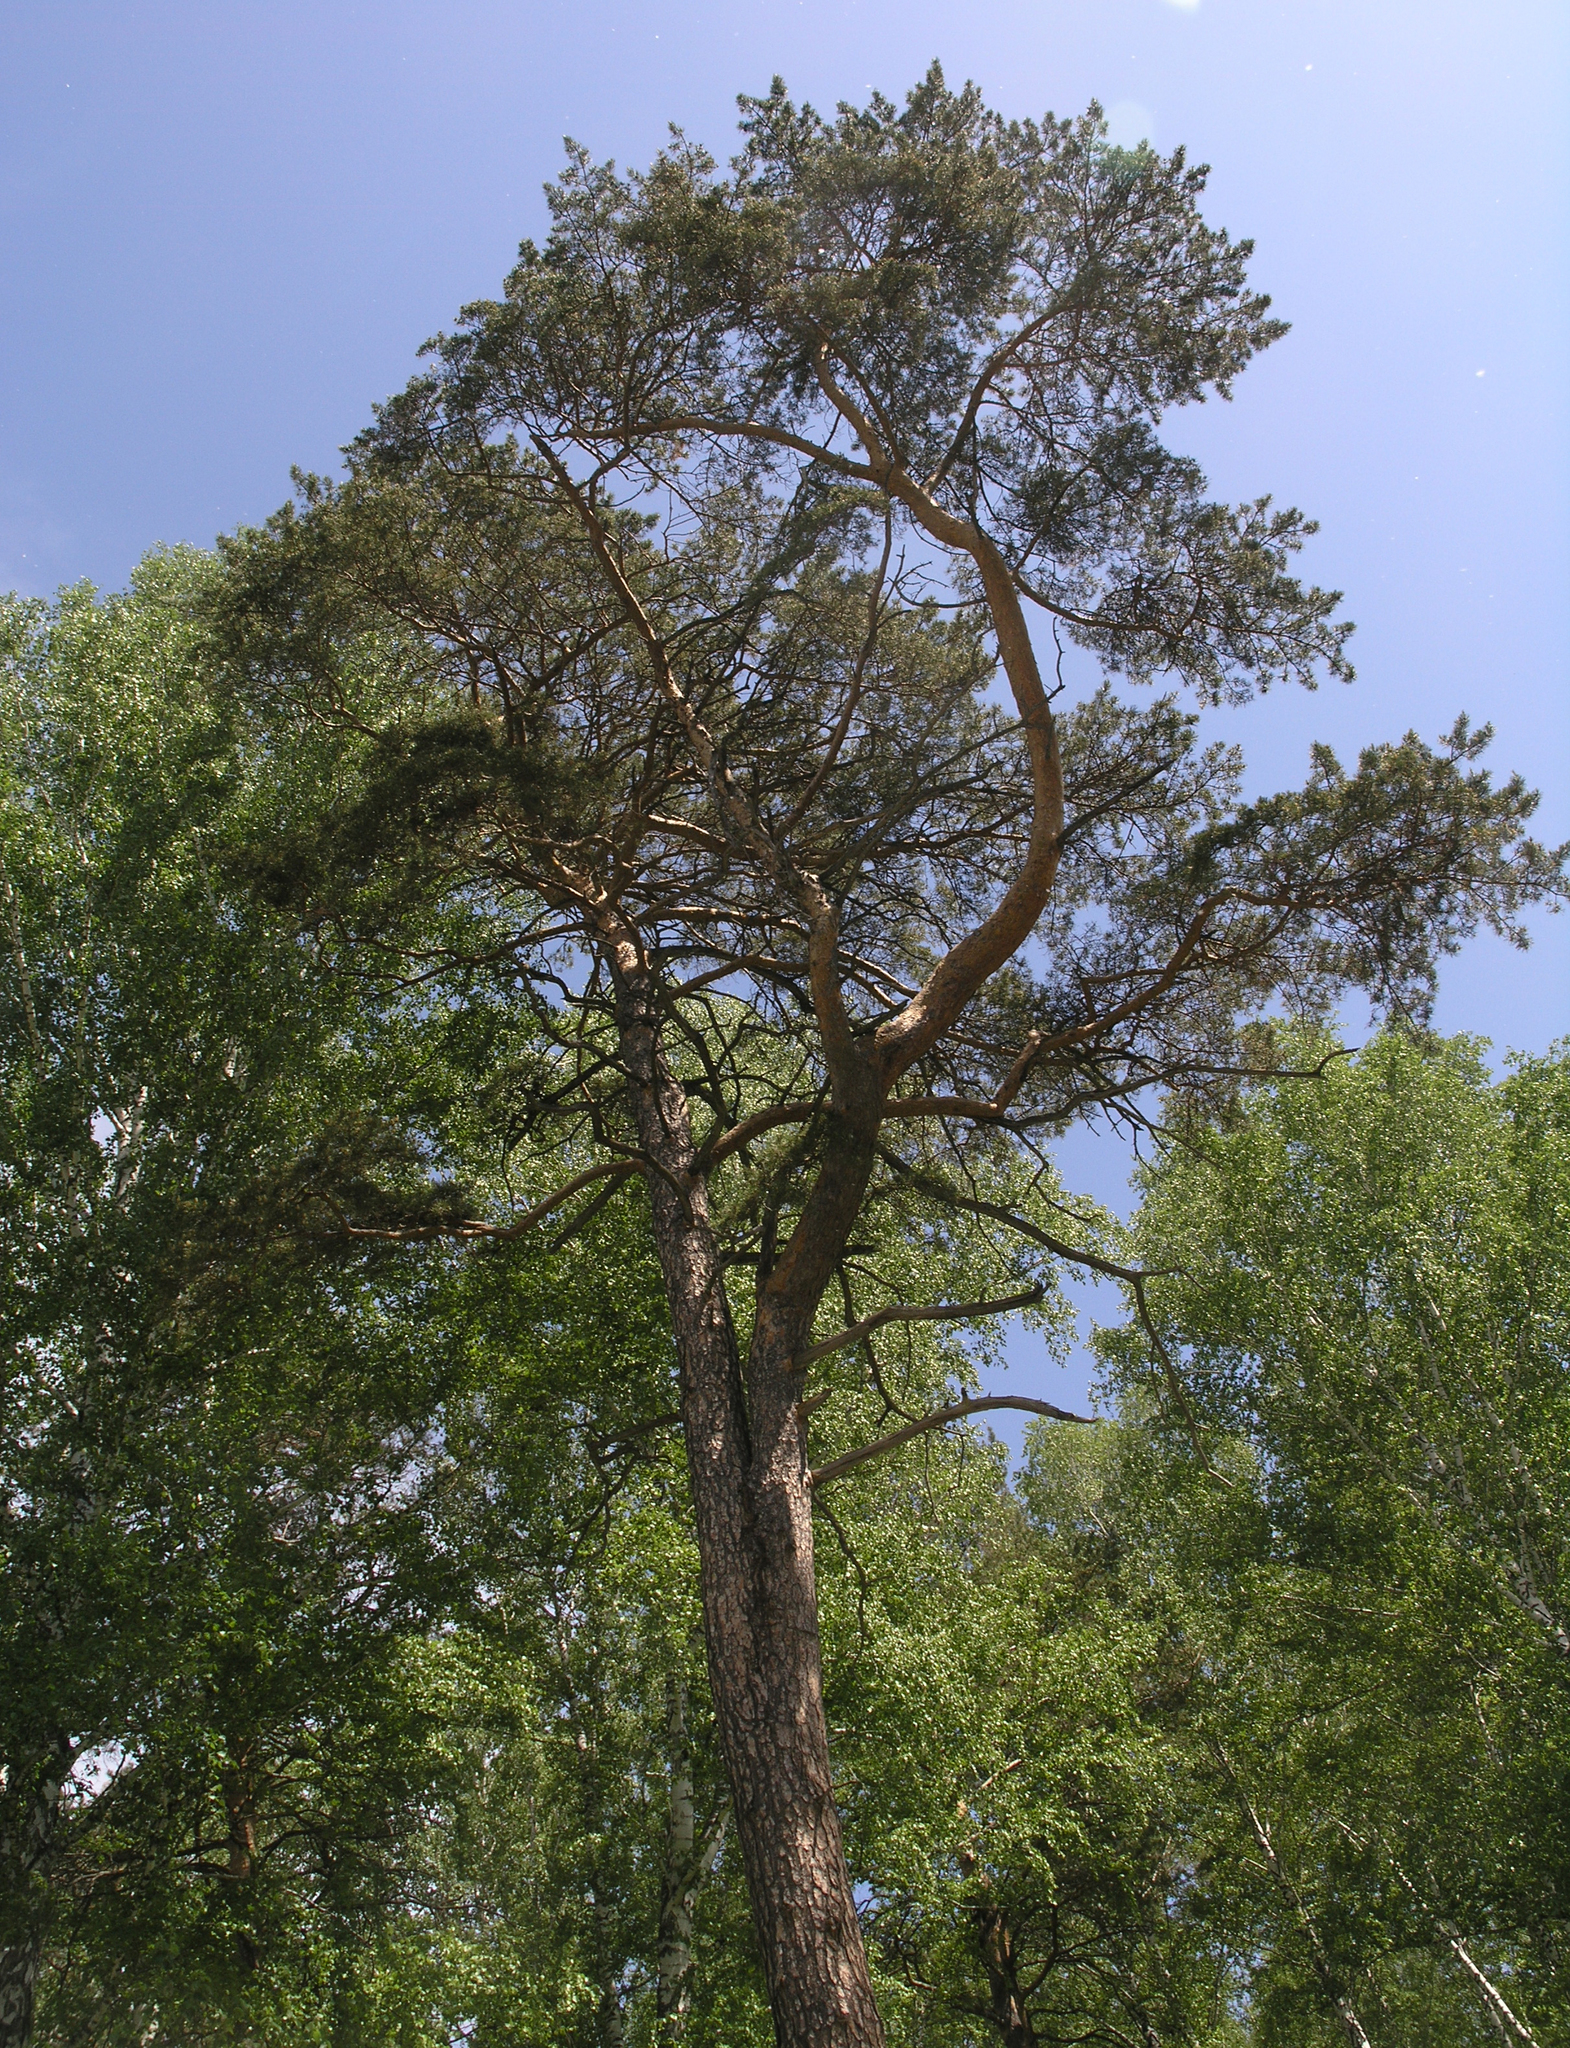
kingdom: Plantae
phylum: Tracheophyta
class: Pinopsida
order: Pinales
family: Pinaceae
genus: Pinus
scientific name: Pinus sylvestris
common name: Scots pine
